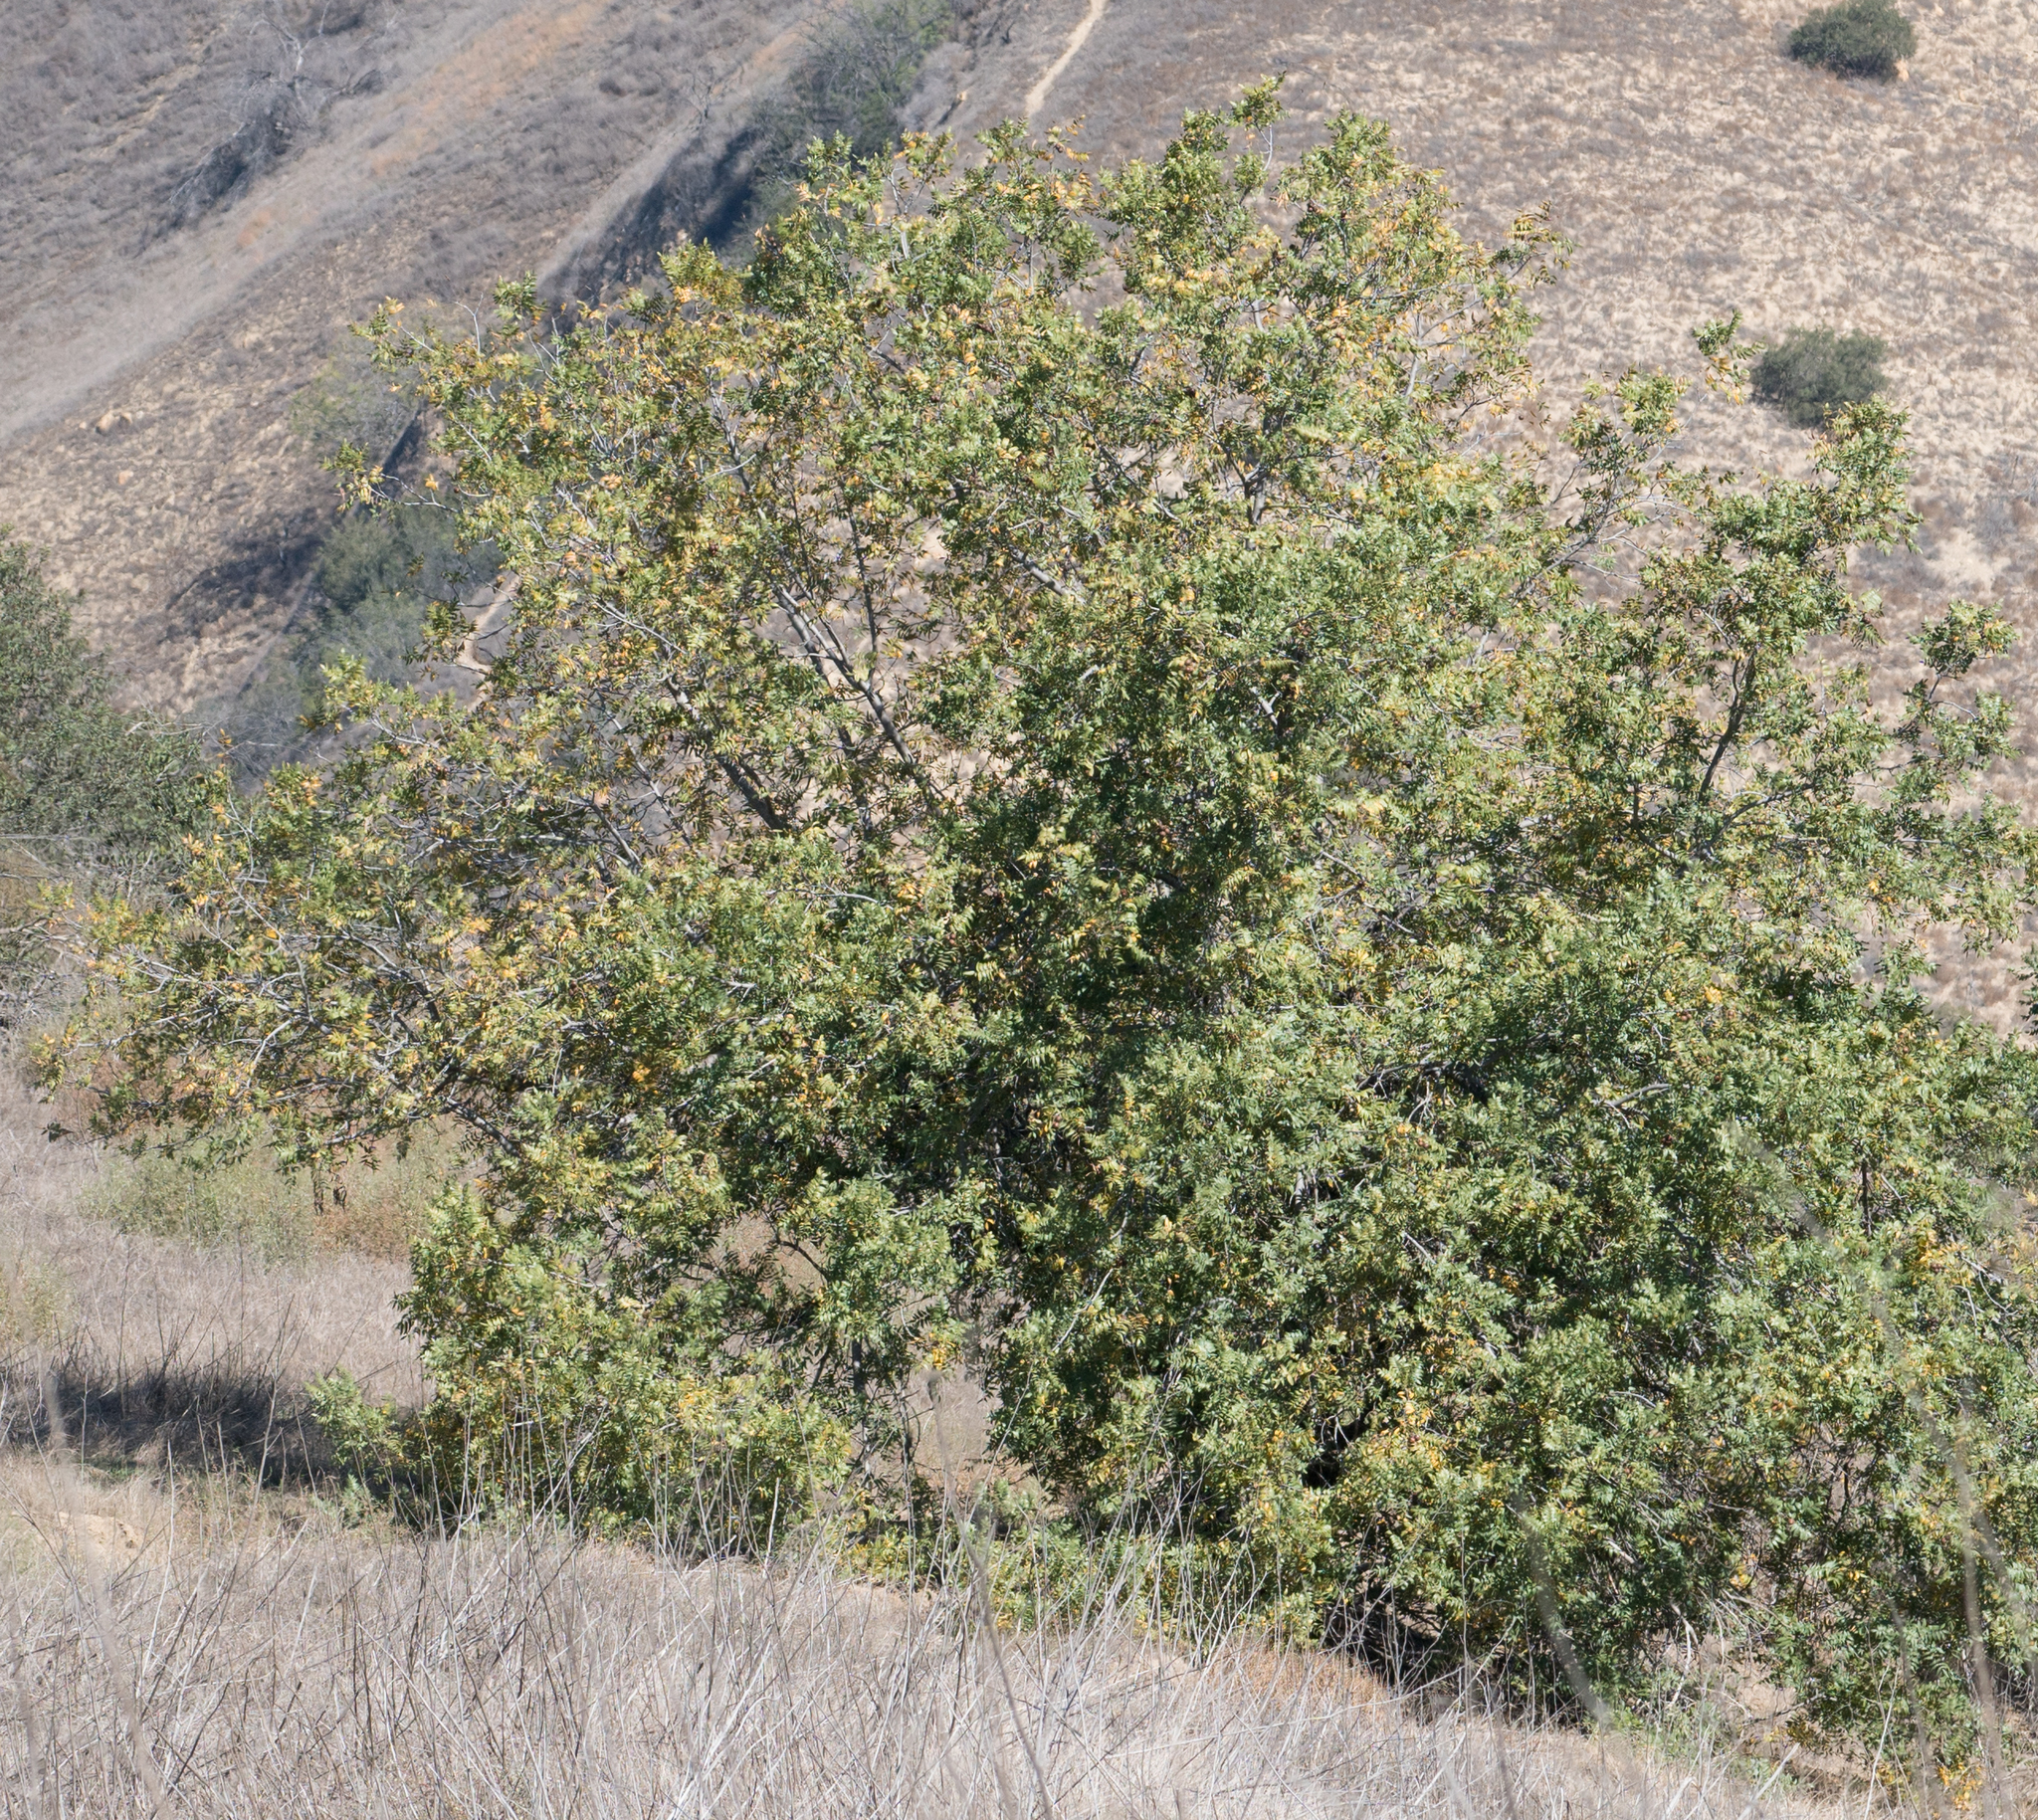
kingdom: Plantae
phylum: Tracheophyta
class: Magnoliopsida
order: Fagales
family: Juglandaceae
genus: Juglans
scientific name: Juglans californica
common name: Southern california black walnut
